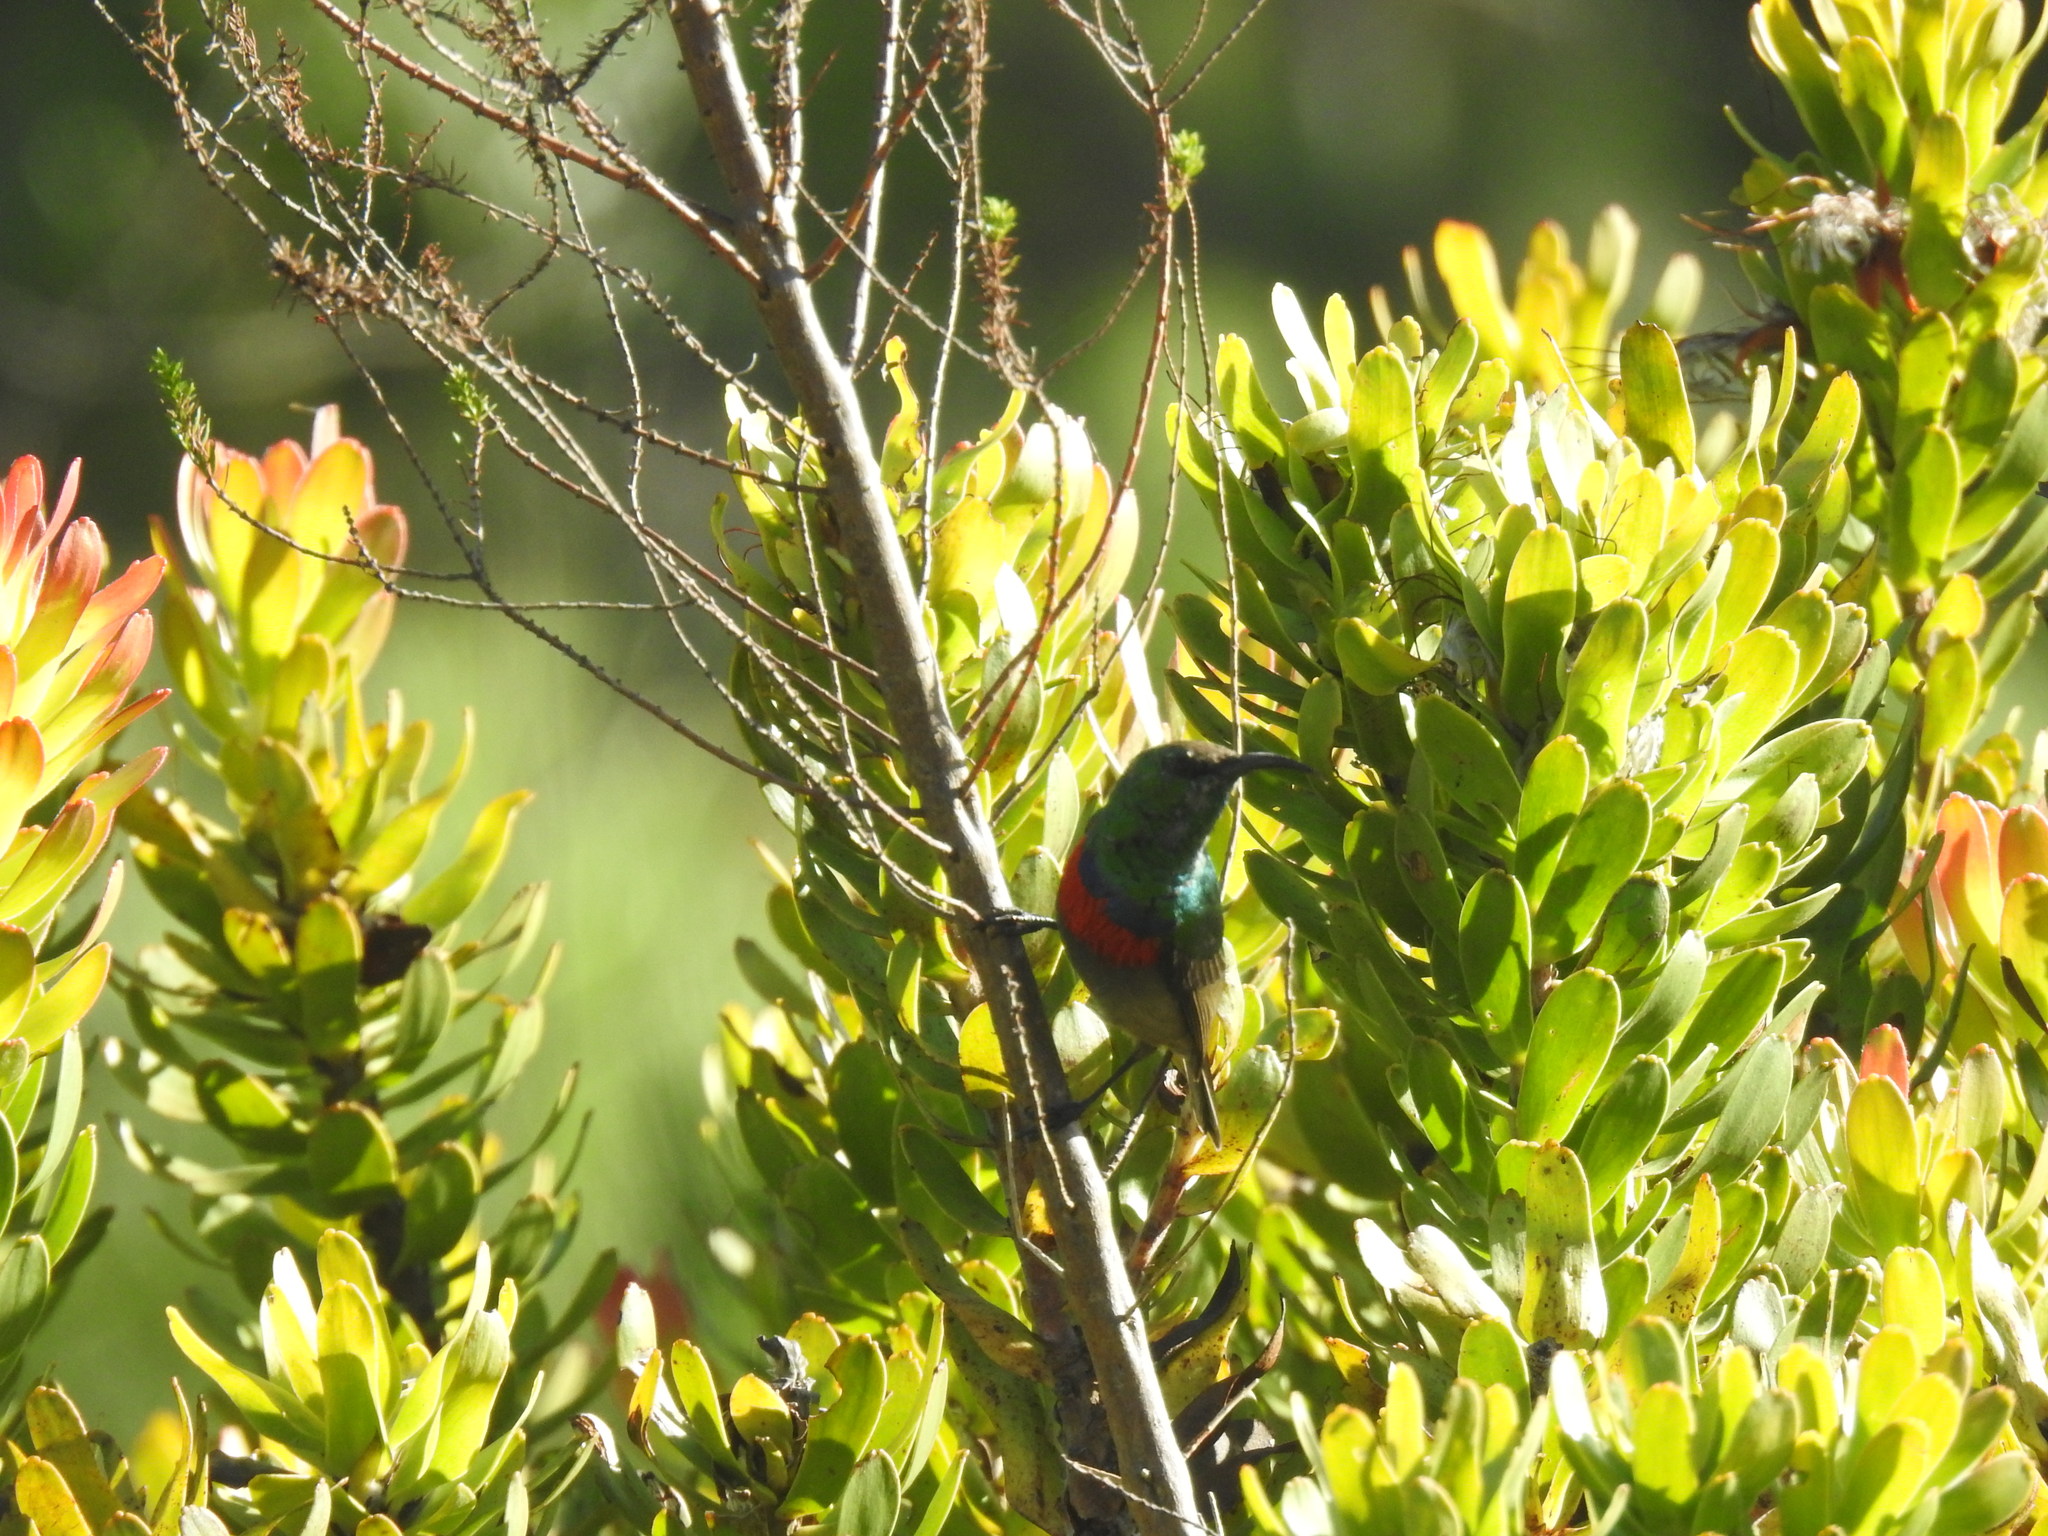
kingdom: Animalia
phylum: Chordata
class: Aves
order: Passeriformes
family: Nectariniidae
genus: Cinnyris
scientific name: Cinnyris chalybeus
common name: Southern double-collared sunbird
